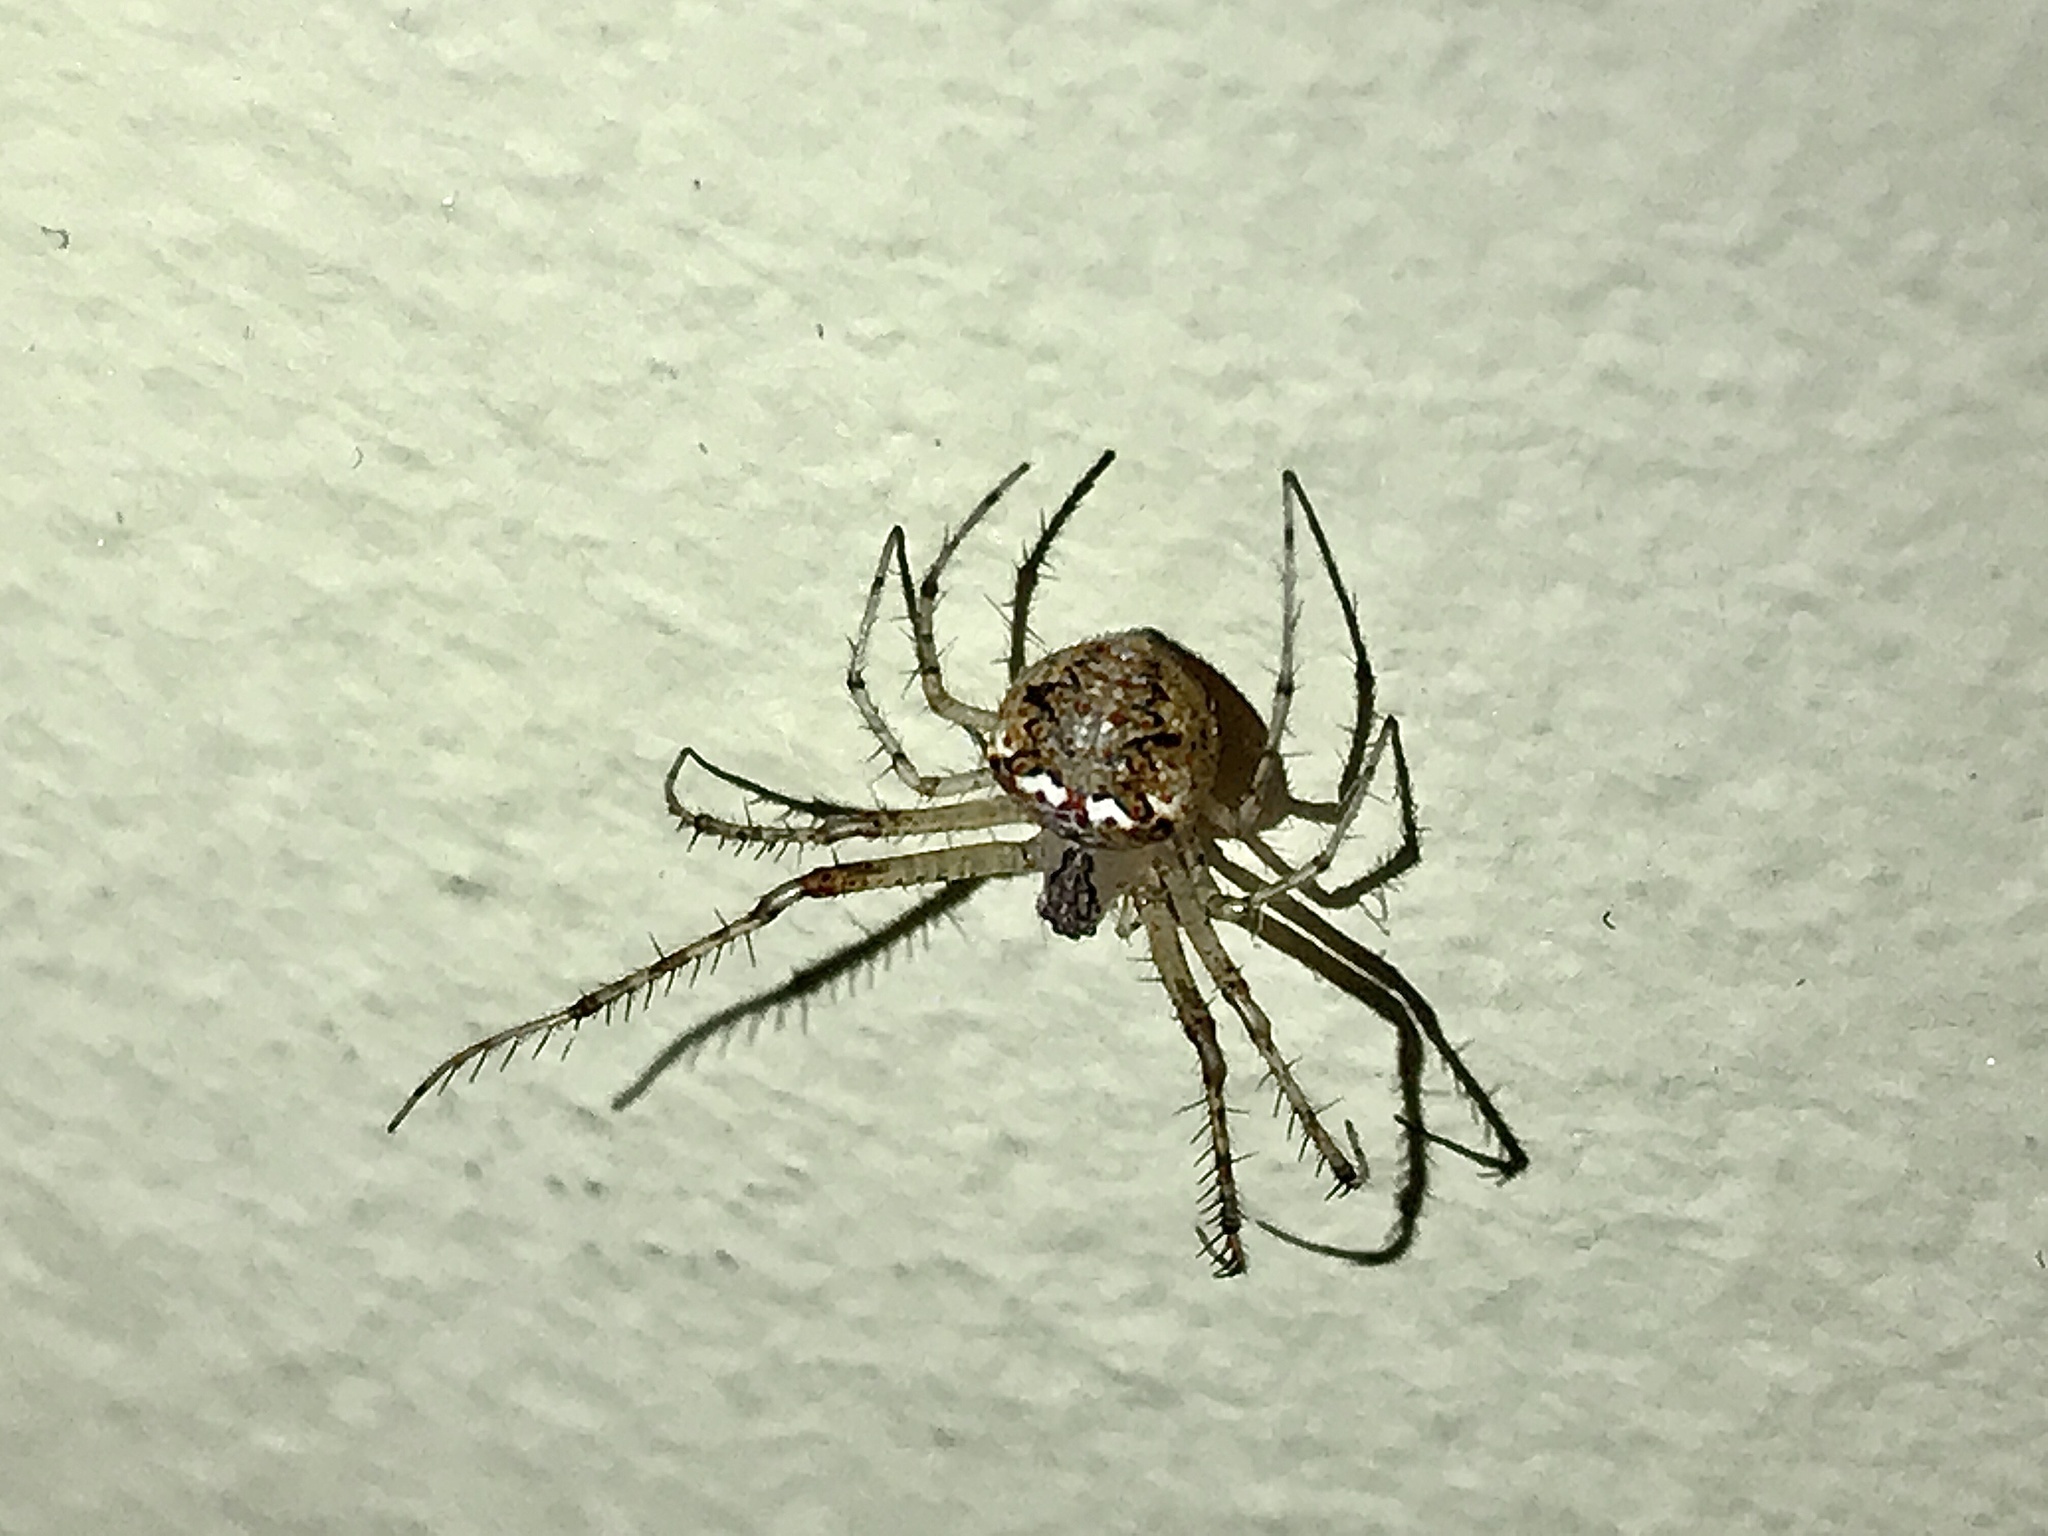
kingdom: Animalia
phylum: Arthropoda
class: Arachnida
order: Araneae
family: Mimetidae
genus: Mimetus
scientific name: Mimetus puritanus
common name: Common pirate spider
